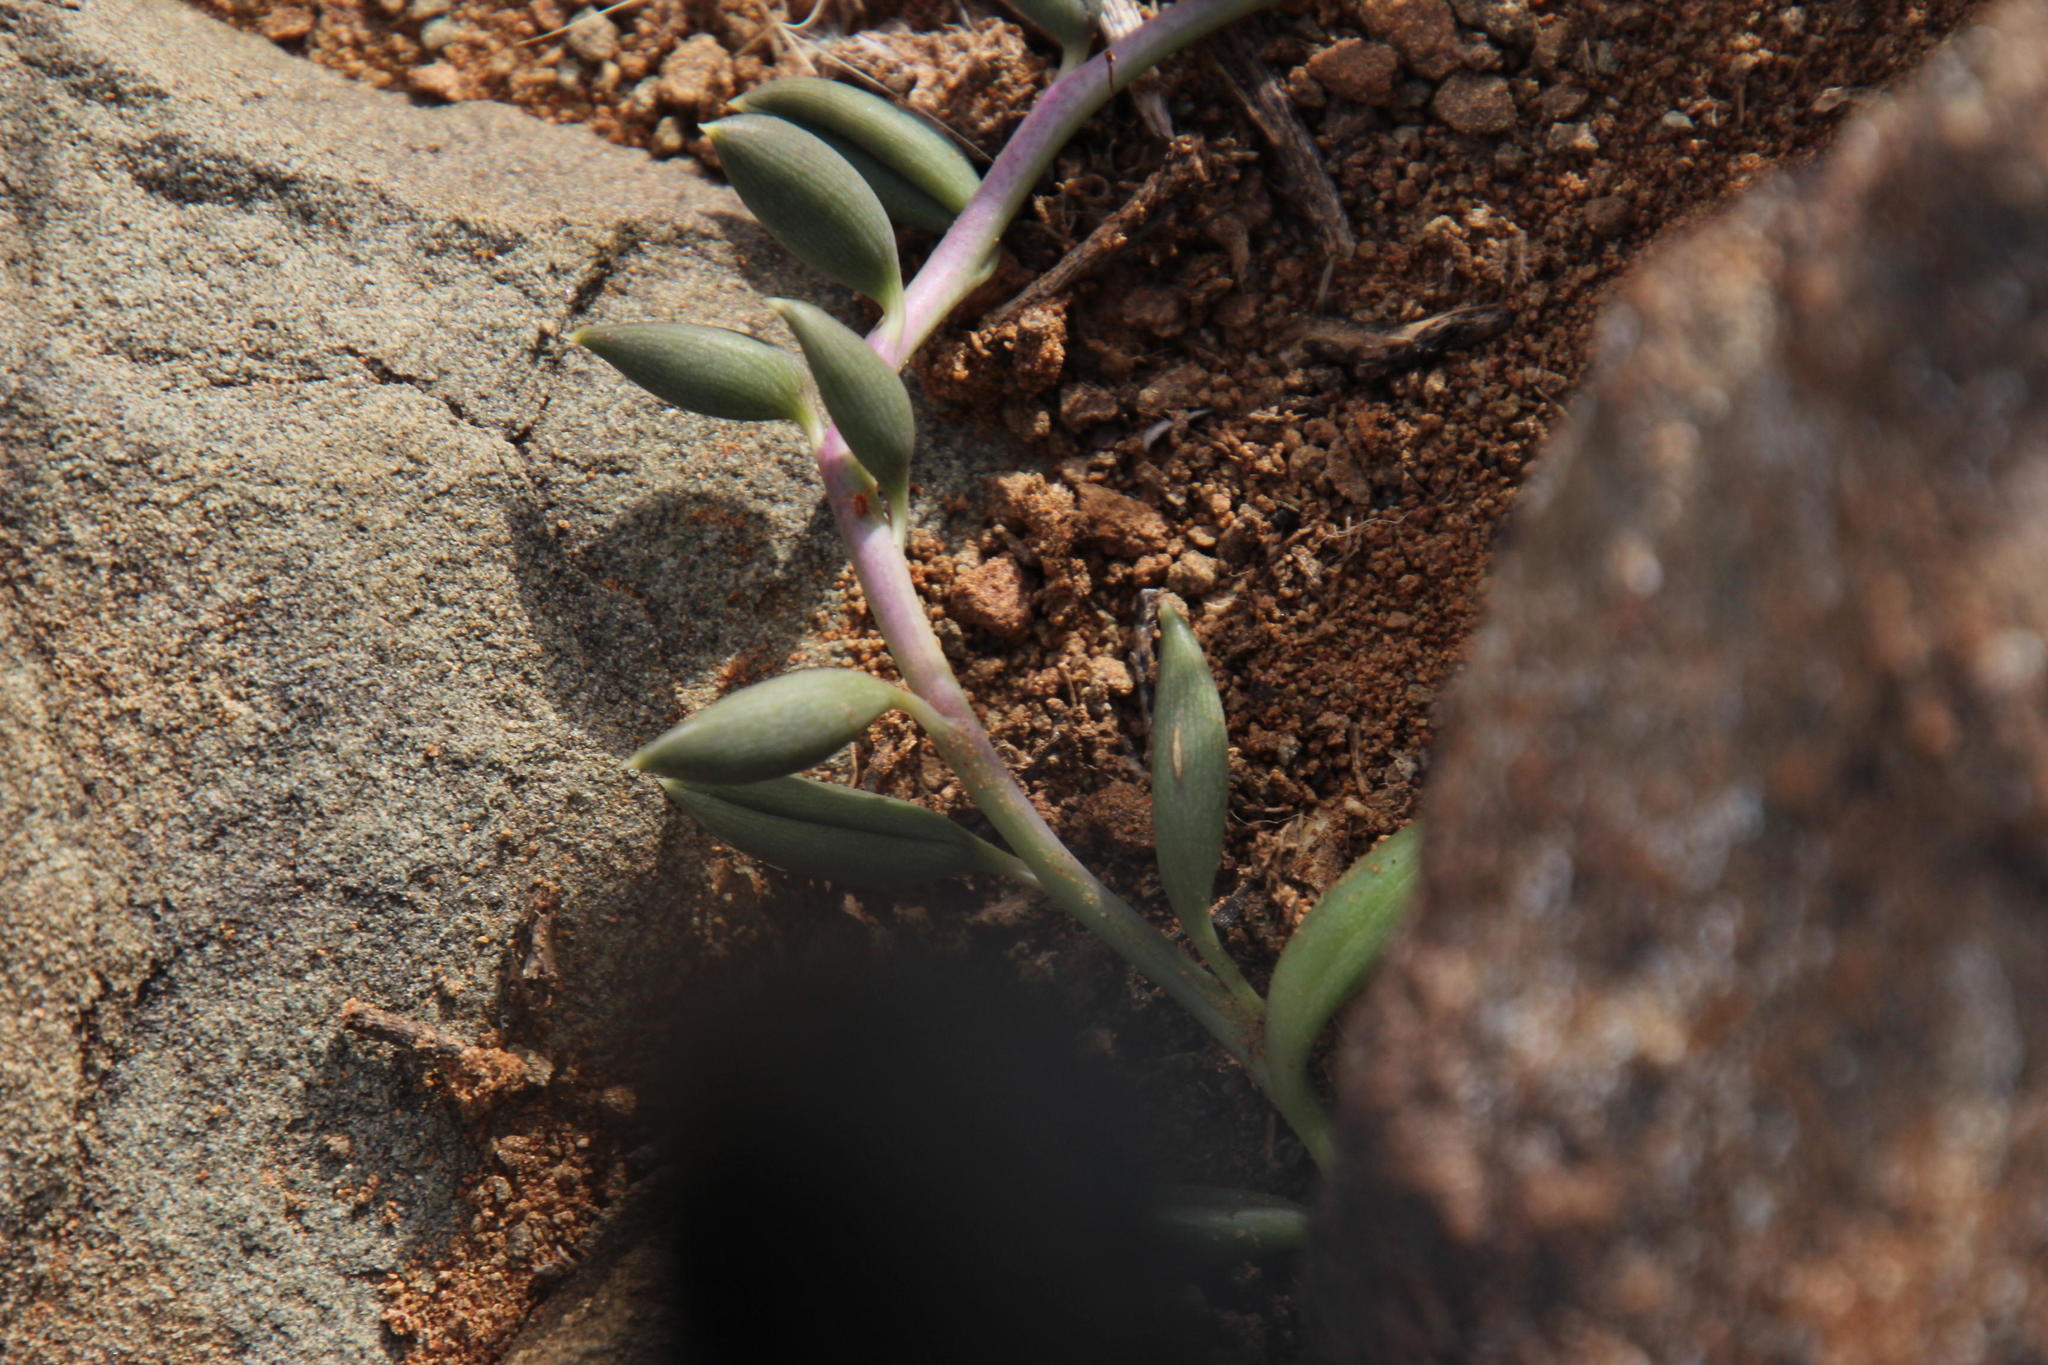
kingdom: Plantae
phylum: Tracheophyta
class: Magnoliopsida
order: Asterales
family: Asteraceae
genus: Curio
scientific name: Curio radicans
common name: Creeping-berry
